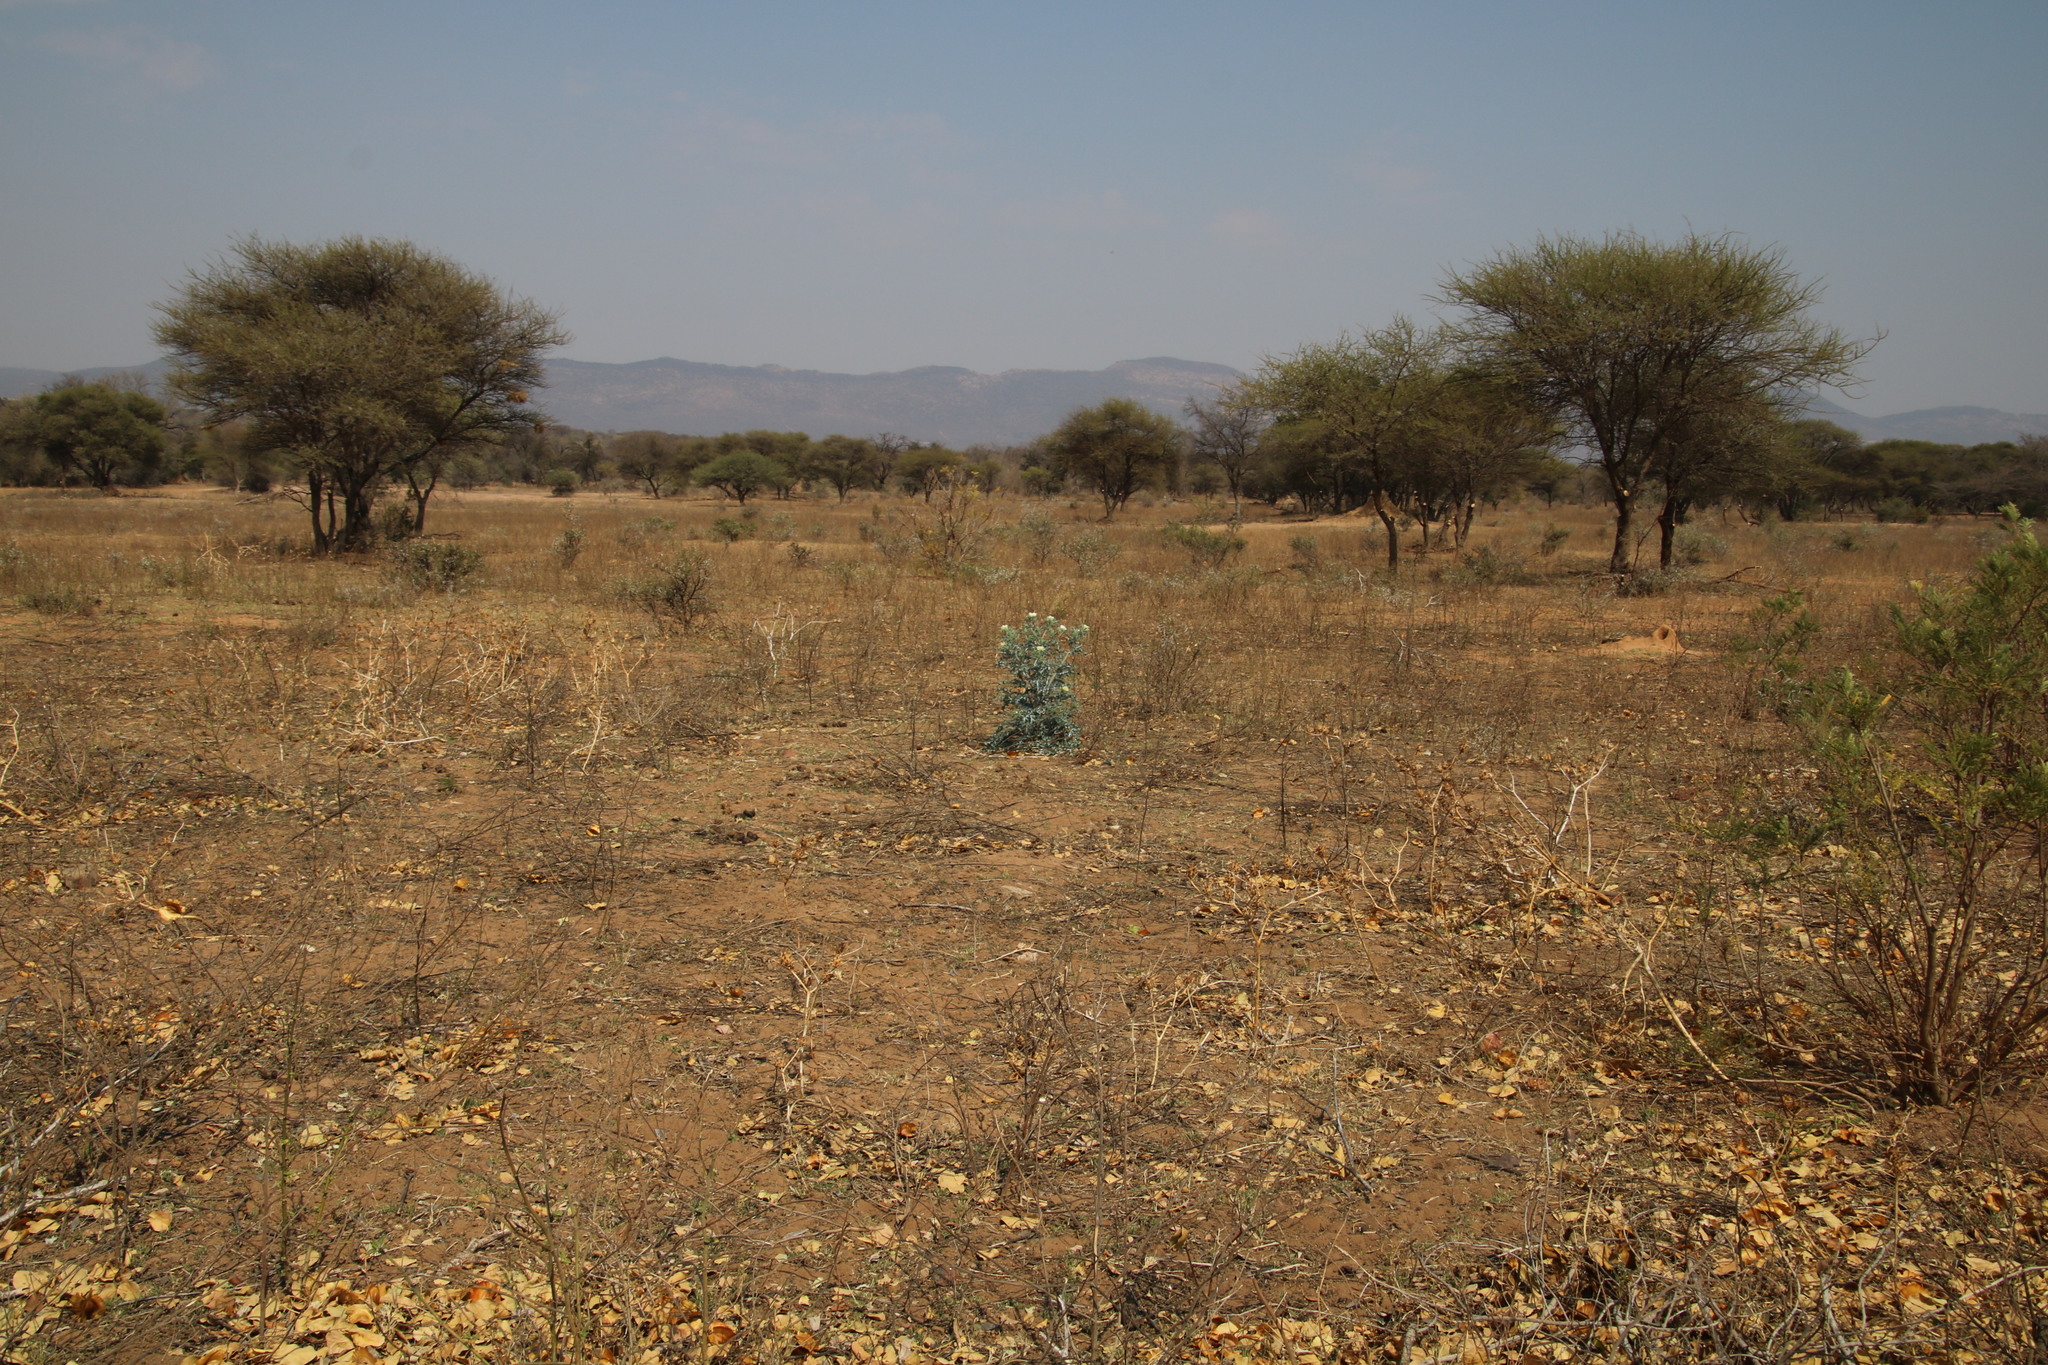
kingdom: Plantae
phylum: Tracheophyta
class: Magnoliopsida
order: Ranunculales
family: Papaveraceae
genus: Argemone
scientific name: Argemone mexicana
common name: Mexican poppy
